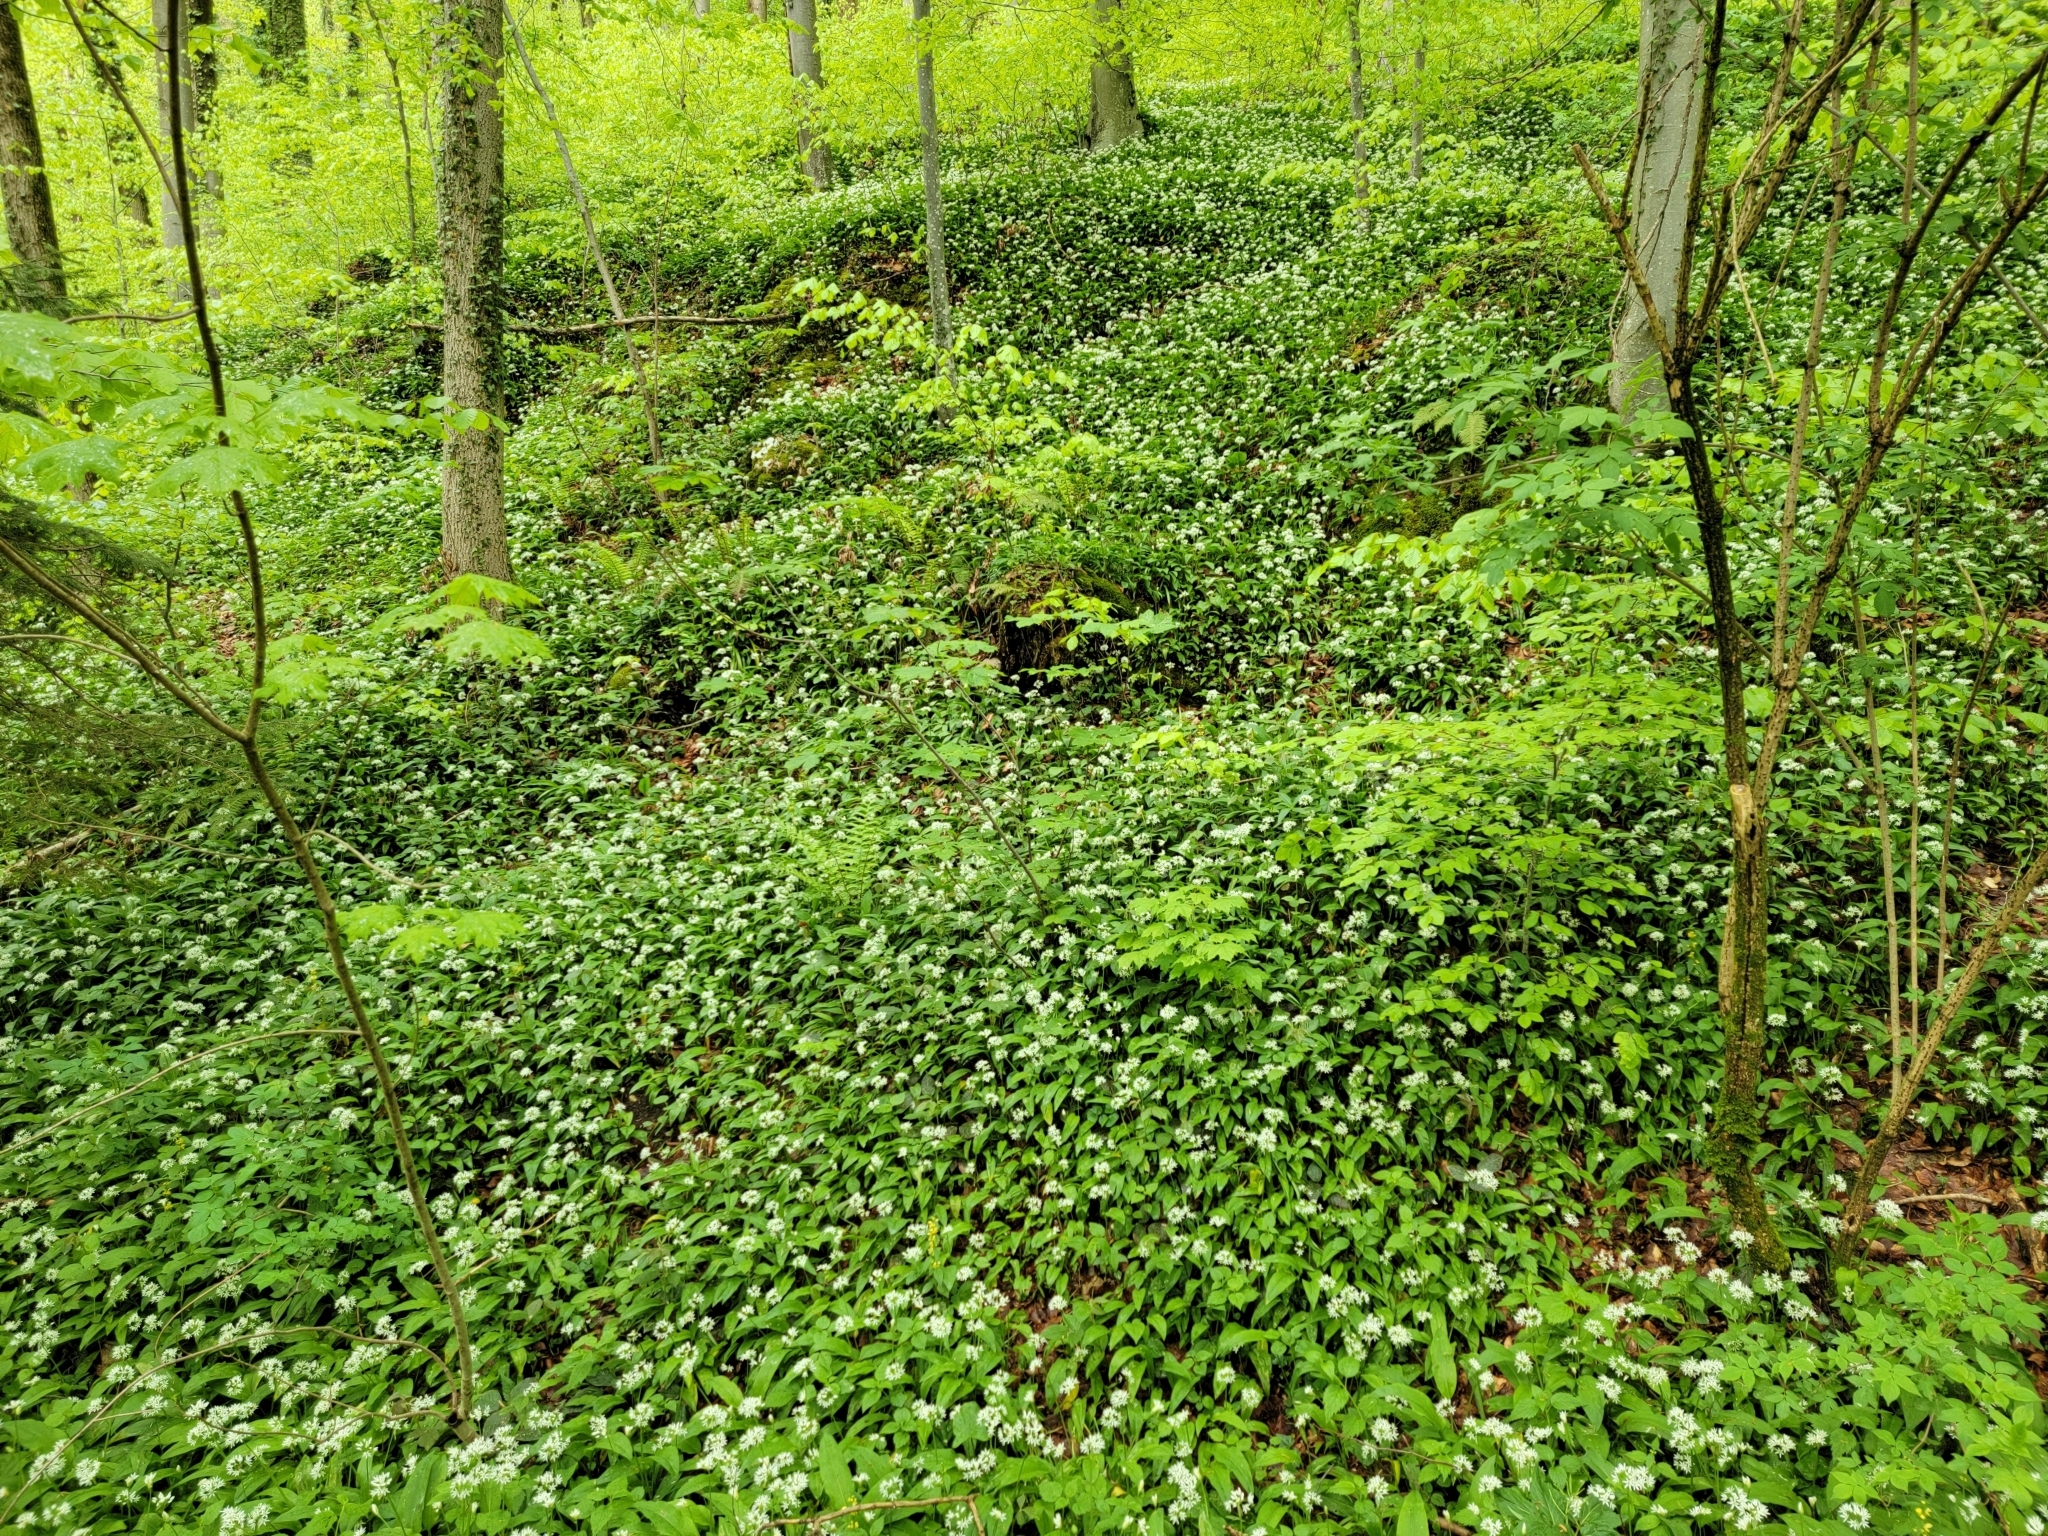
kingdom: Plantae
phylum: Tracheophyta
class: Liliopsida
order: Asparagales
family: Amaryllidaceae
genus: Allium
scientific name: Allium ursinum
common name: Ramsons
